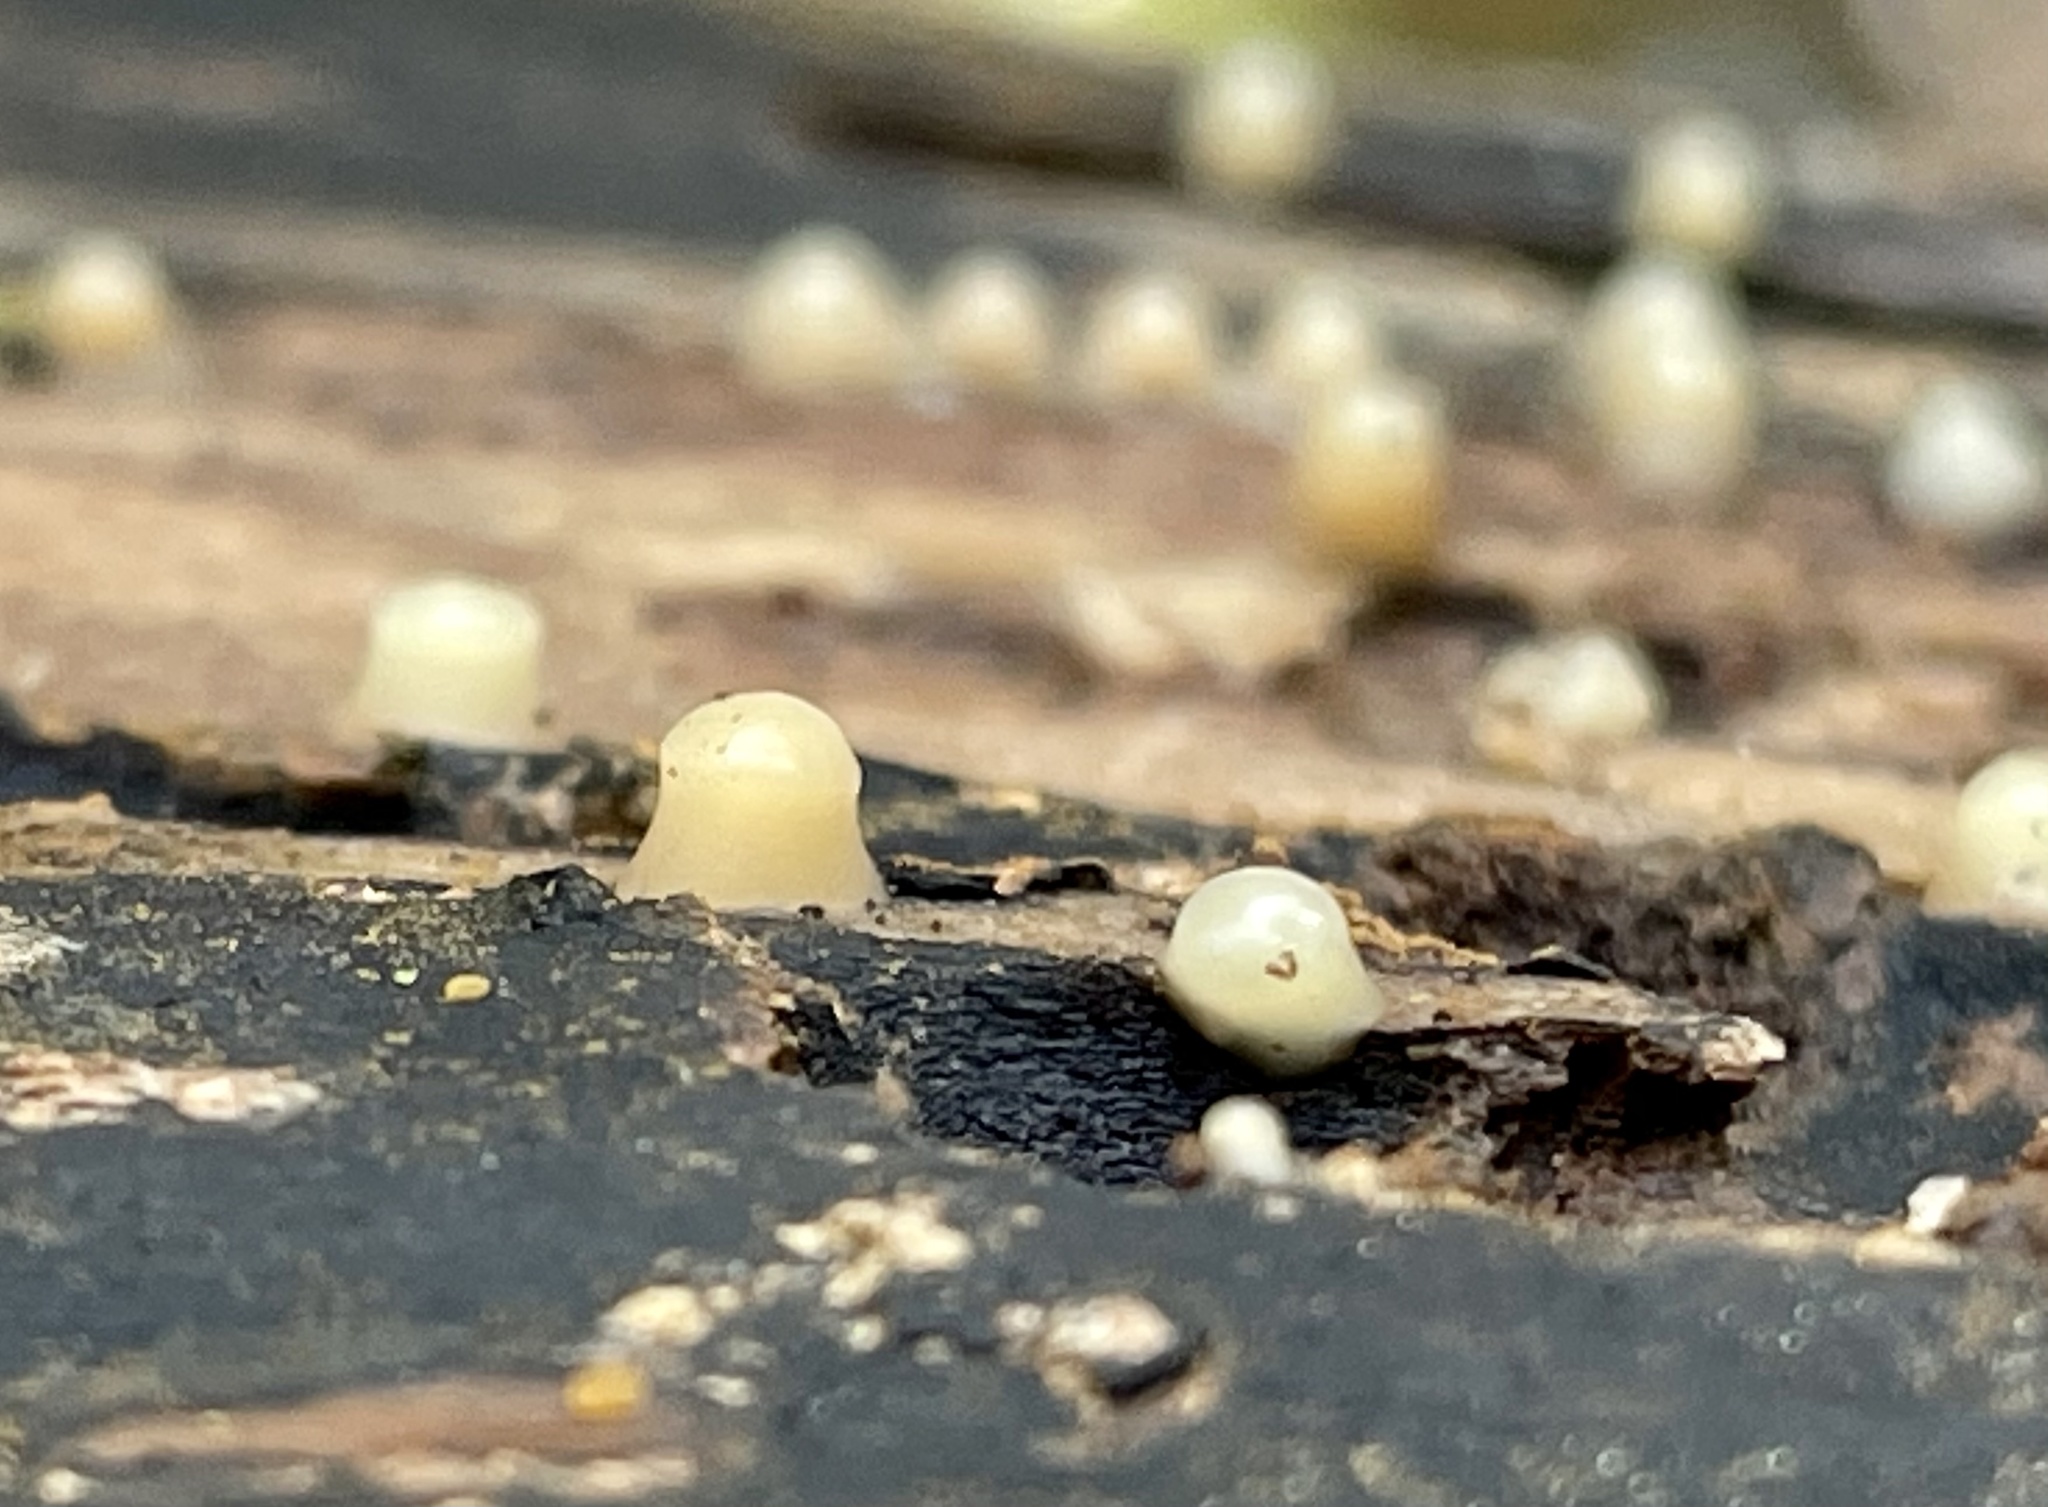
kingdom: Fungi
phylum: Basidiomycota
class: Atractiellomycetes
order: Atractiellales
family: Phleogenaceae
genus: Helicogloea
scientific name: Helicogloea compressa
